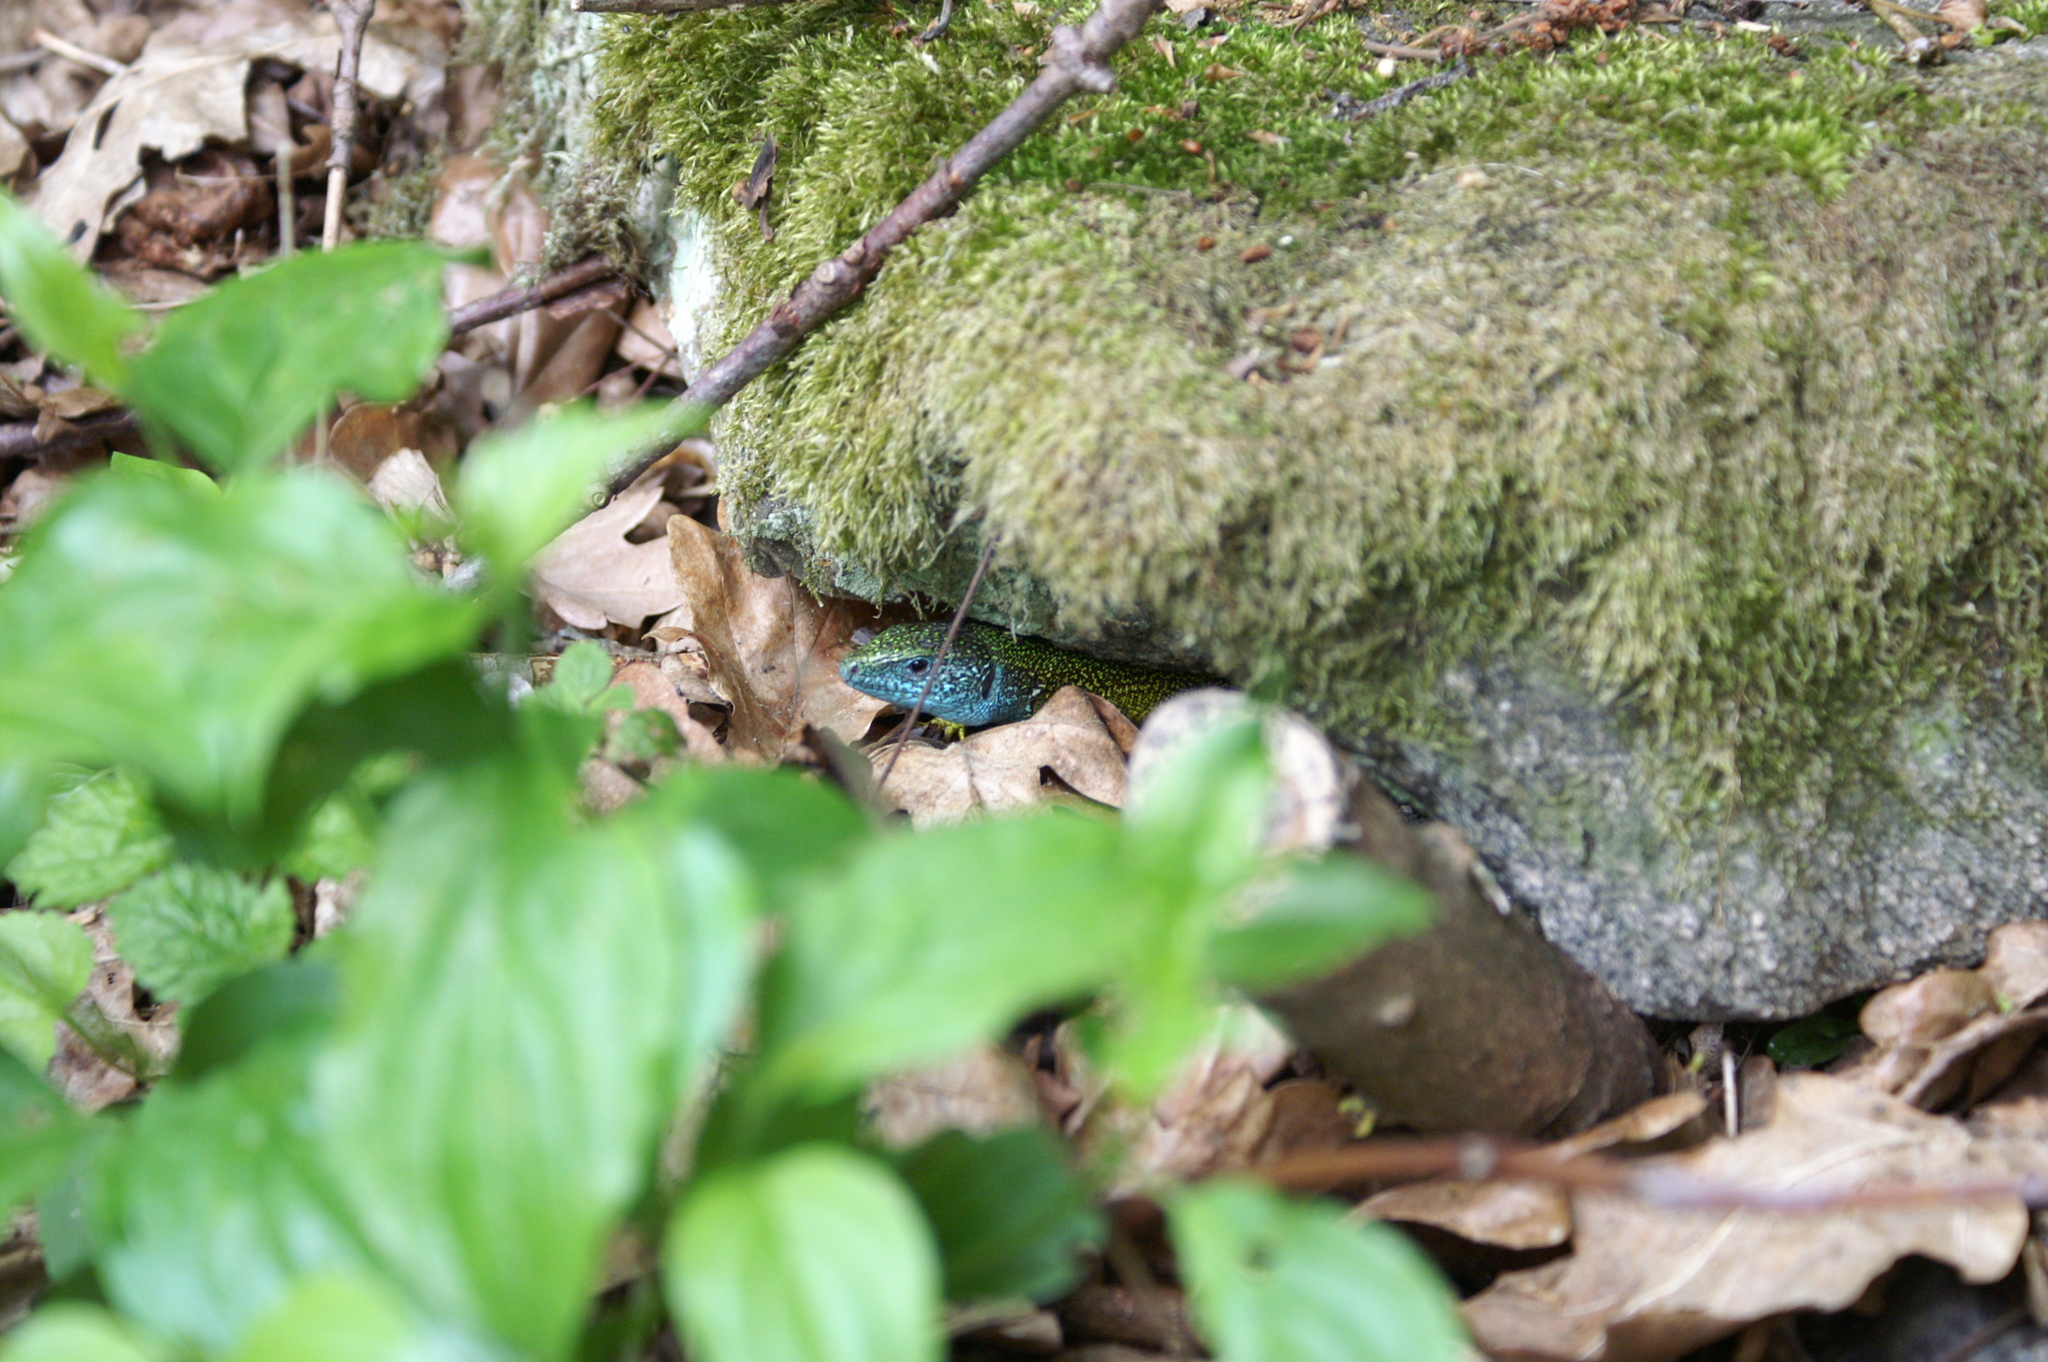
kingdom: Animalia
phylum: Chordata
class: Squamata
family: Lacertidae
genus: Lacerta
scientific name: Lacerta viridis
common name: European green lizard
